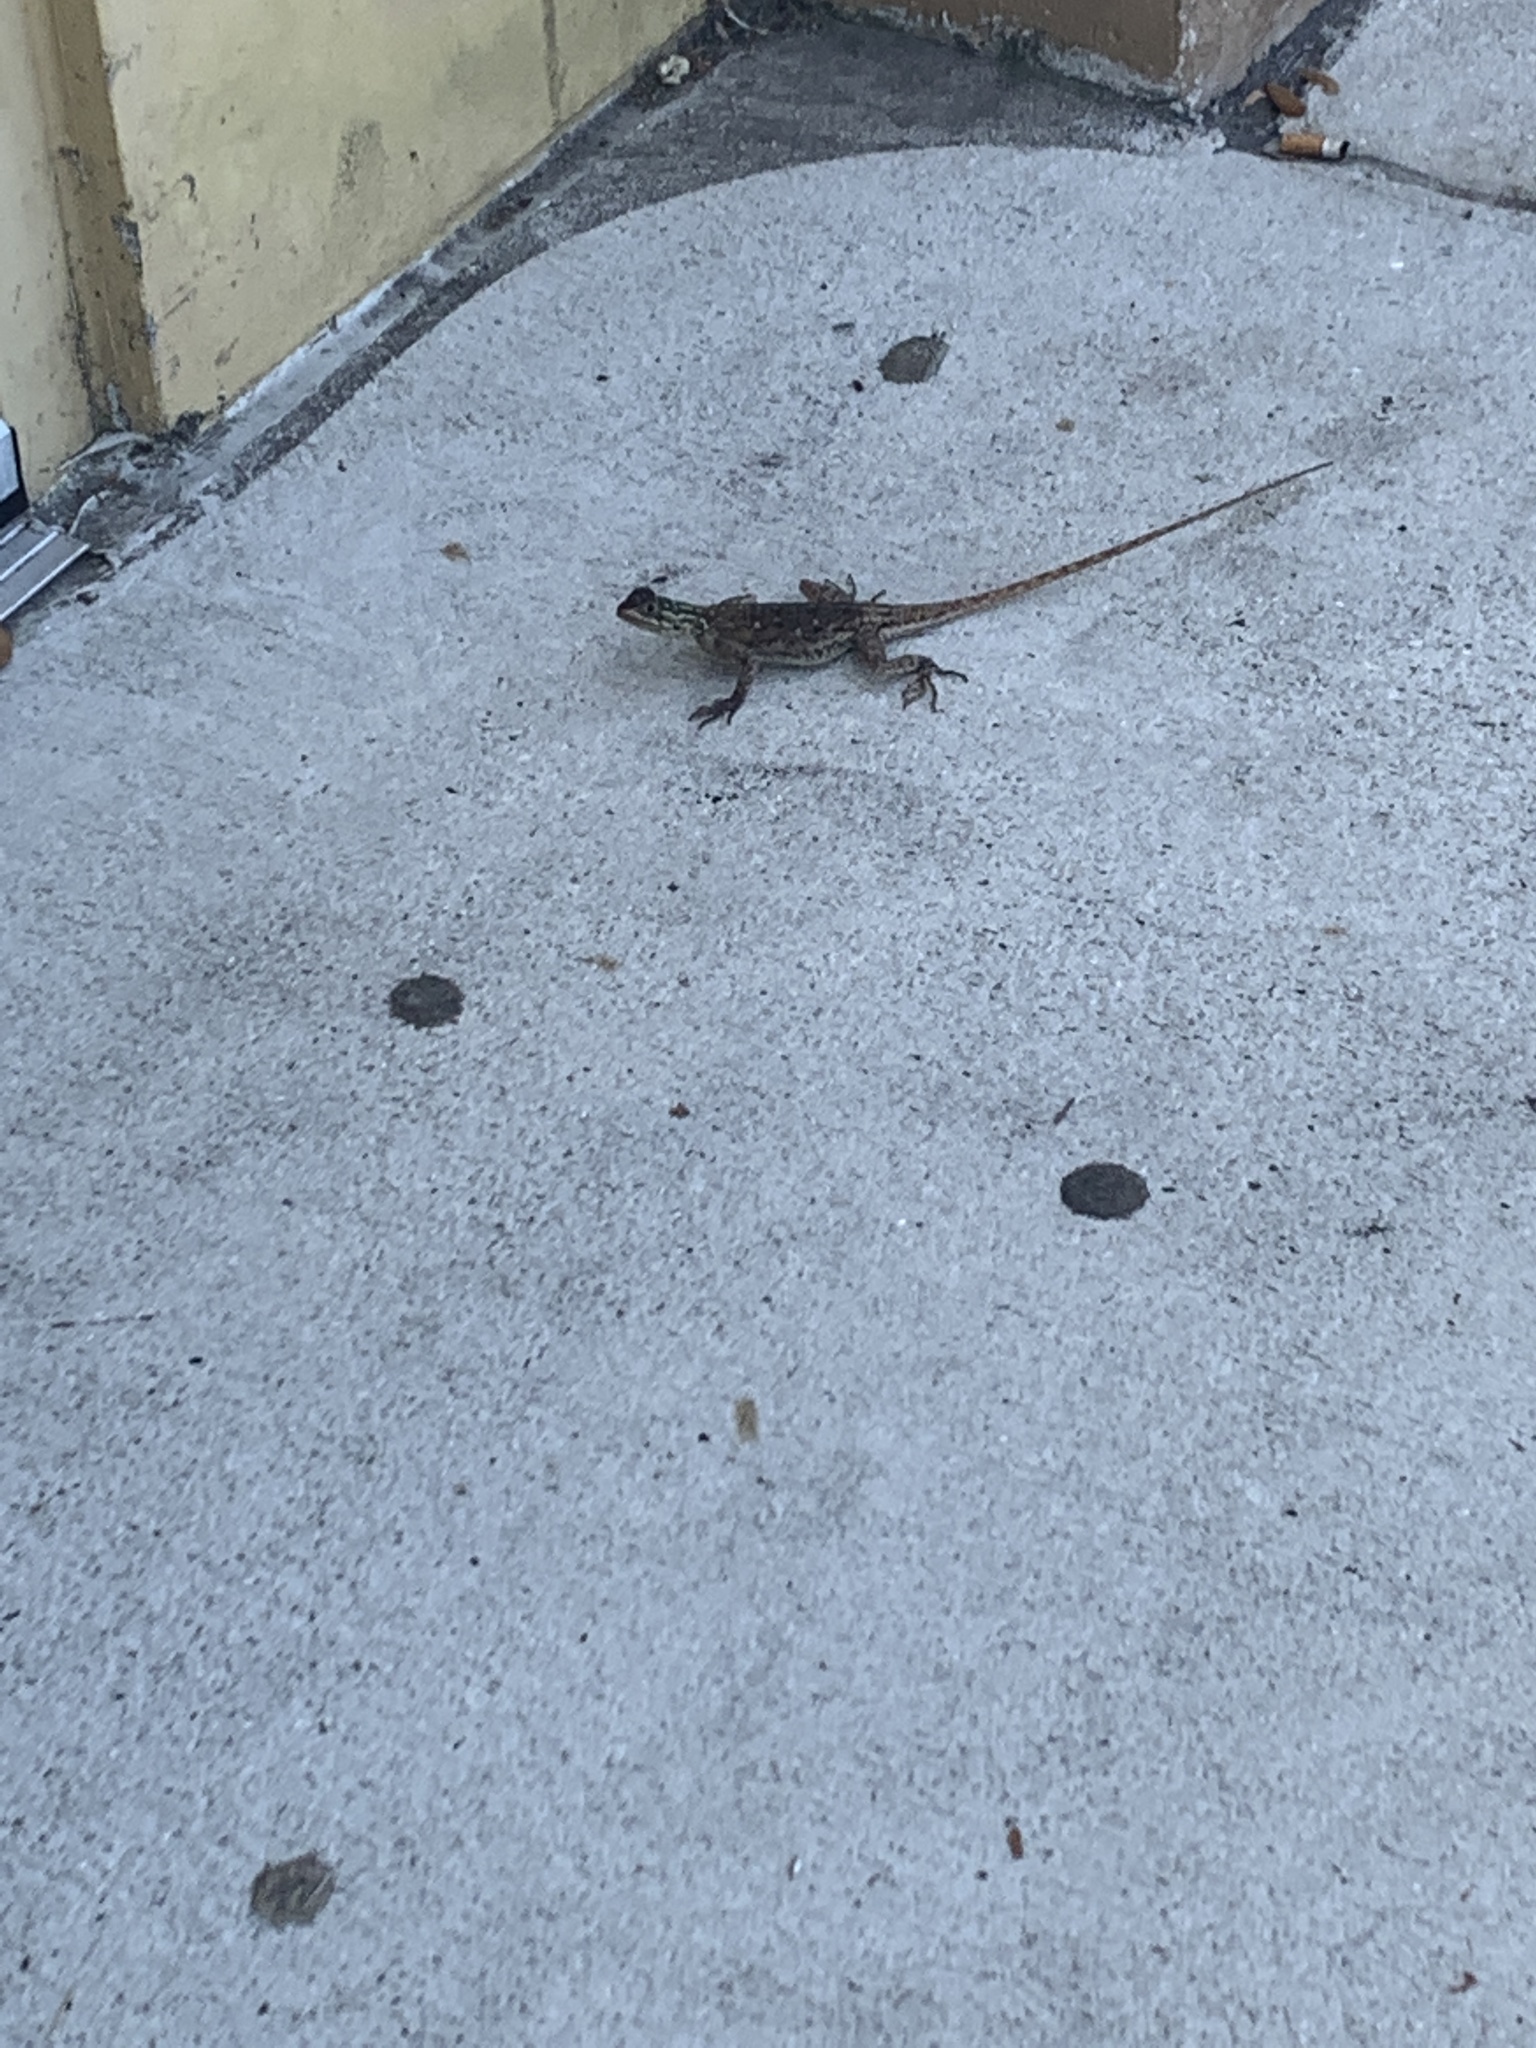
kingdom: Animalia
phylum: Chordata
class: Squamata
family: Agamidae
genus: Agama
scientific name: Agama picticauda
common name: Red-headed agama
